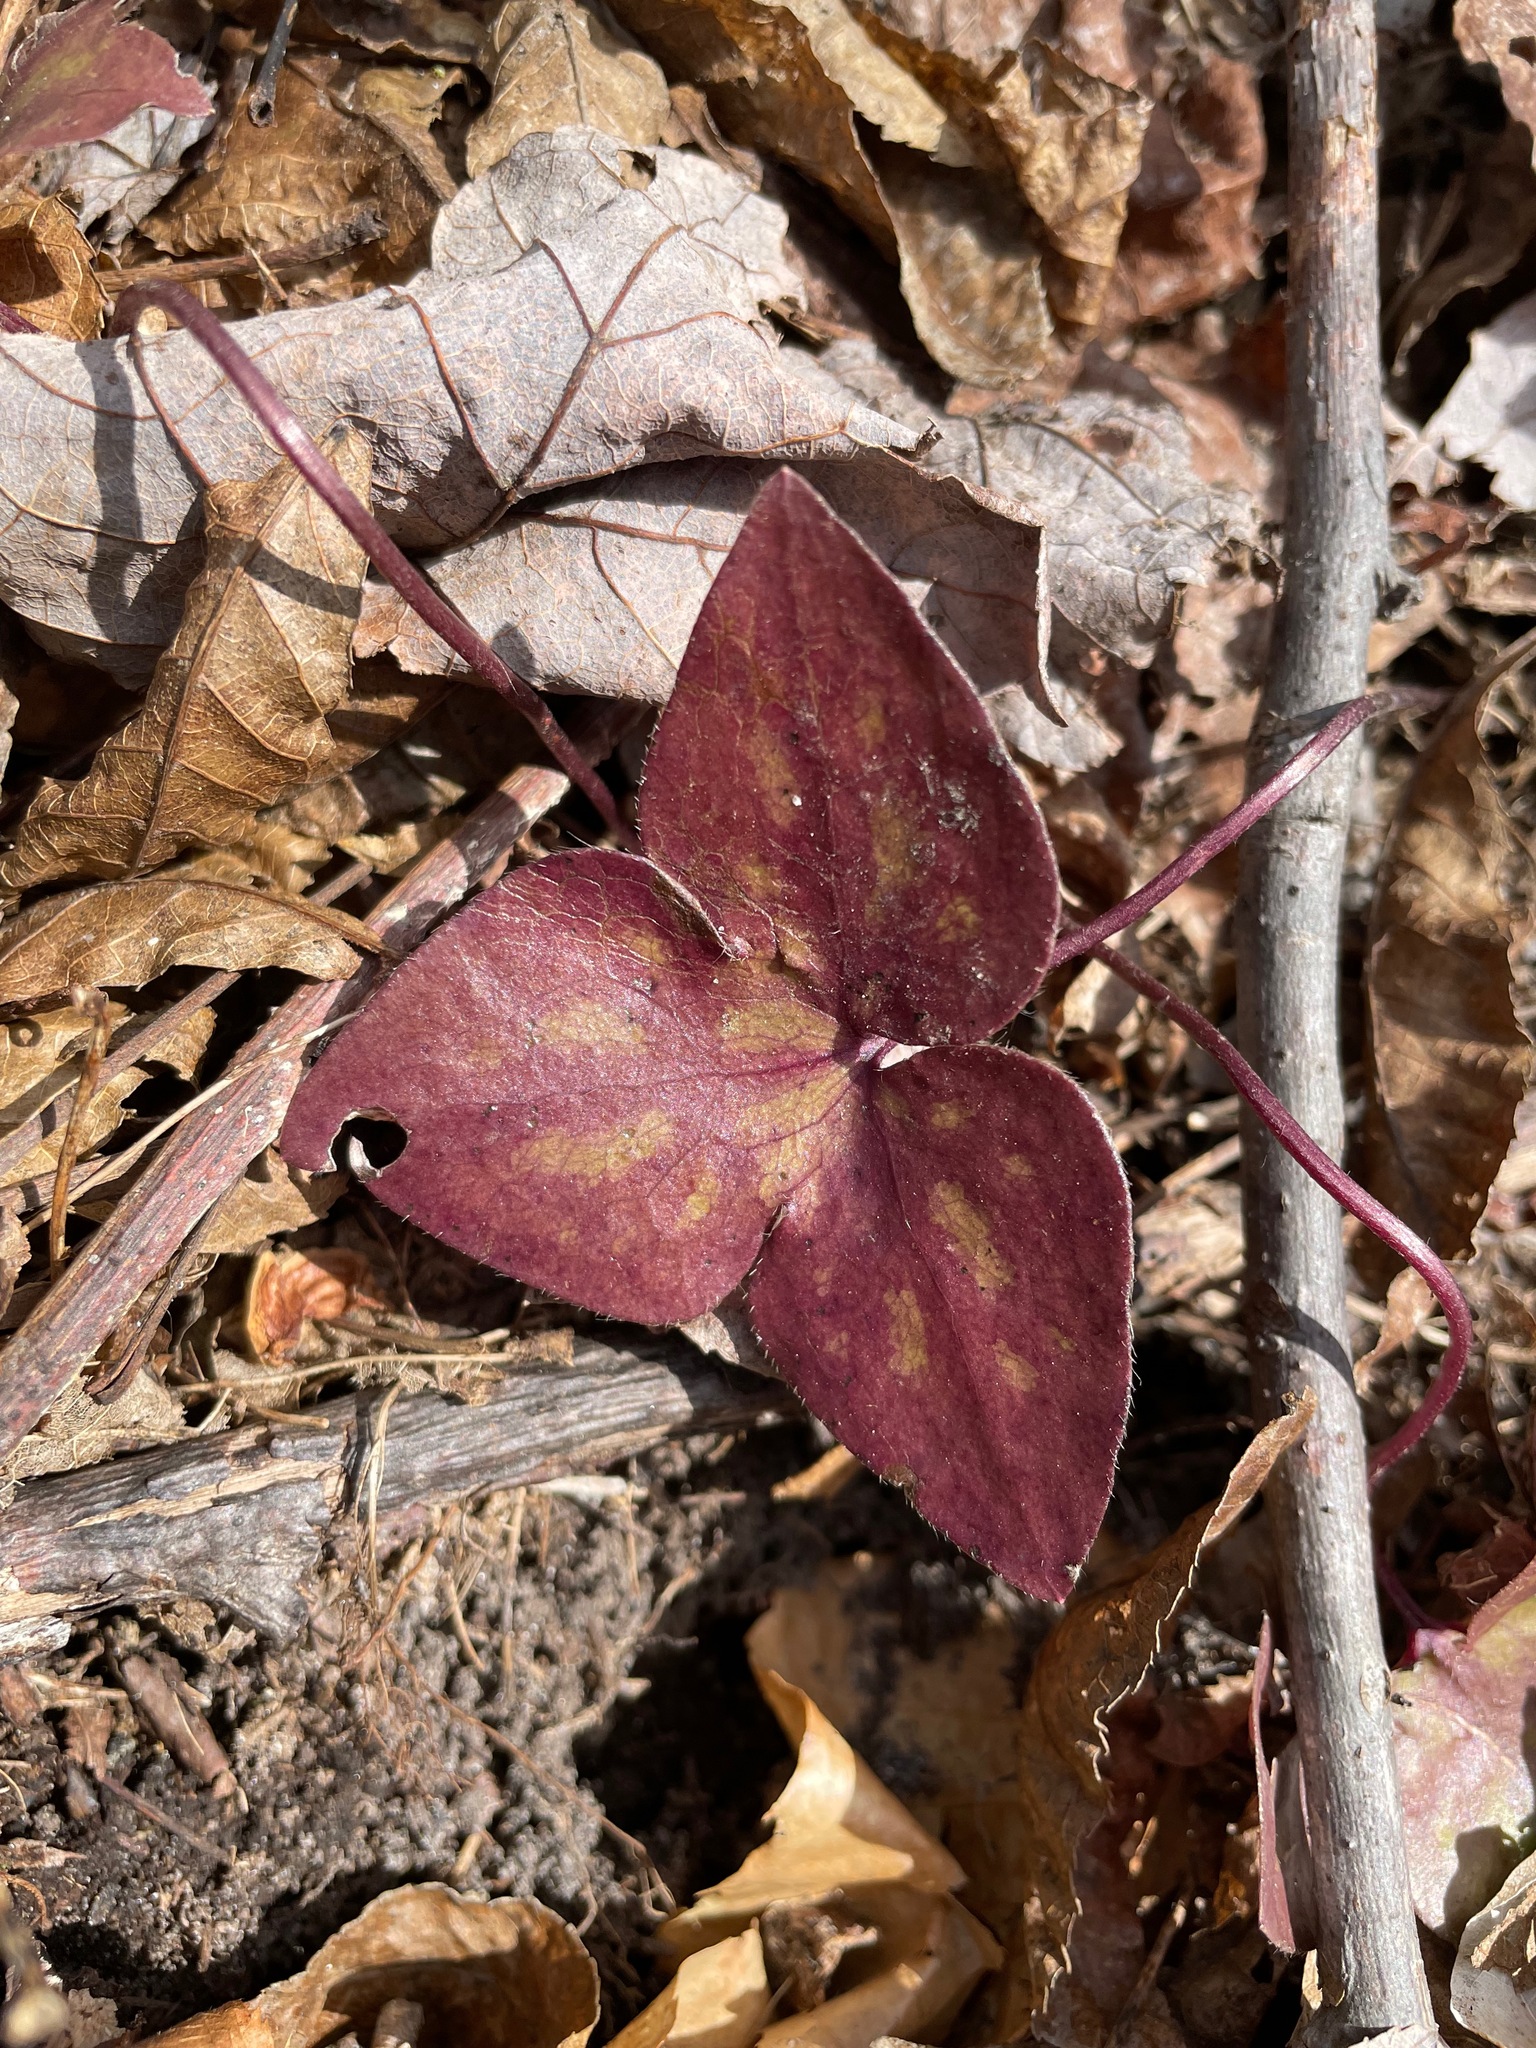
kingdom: Plantae
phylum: Tracheophyta
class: Magnoliopsida
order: Ranunculales
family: Ranunculaceae
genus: Hepatica
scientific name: Hepatica acutiloba
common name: Sharp-lobed hepatica
